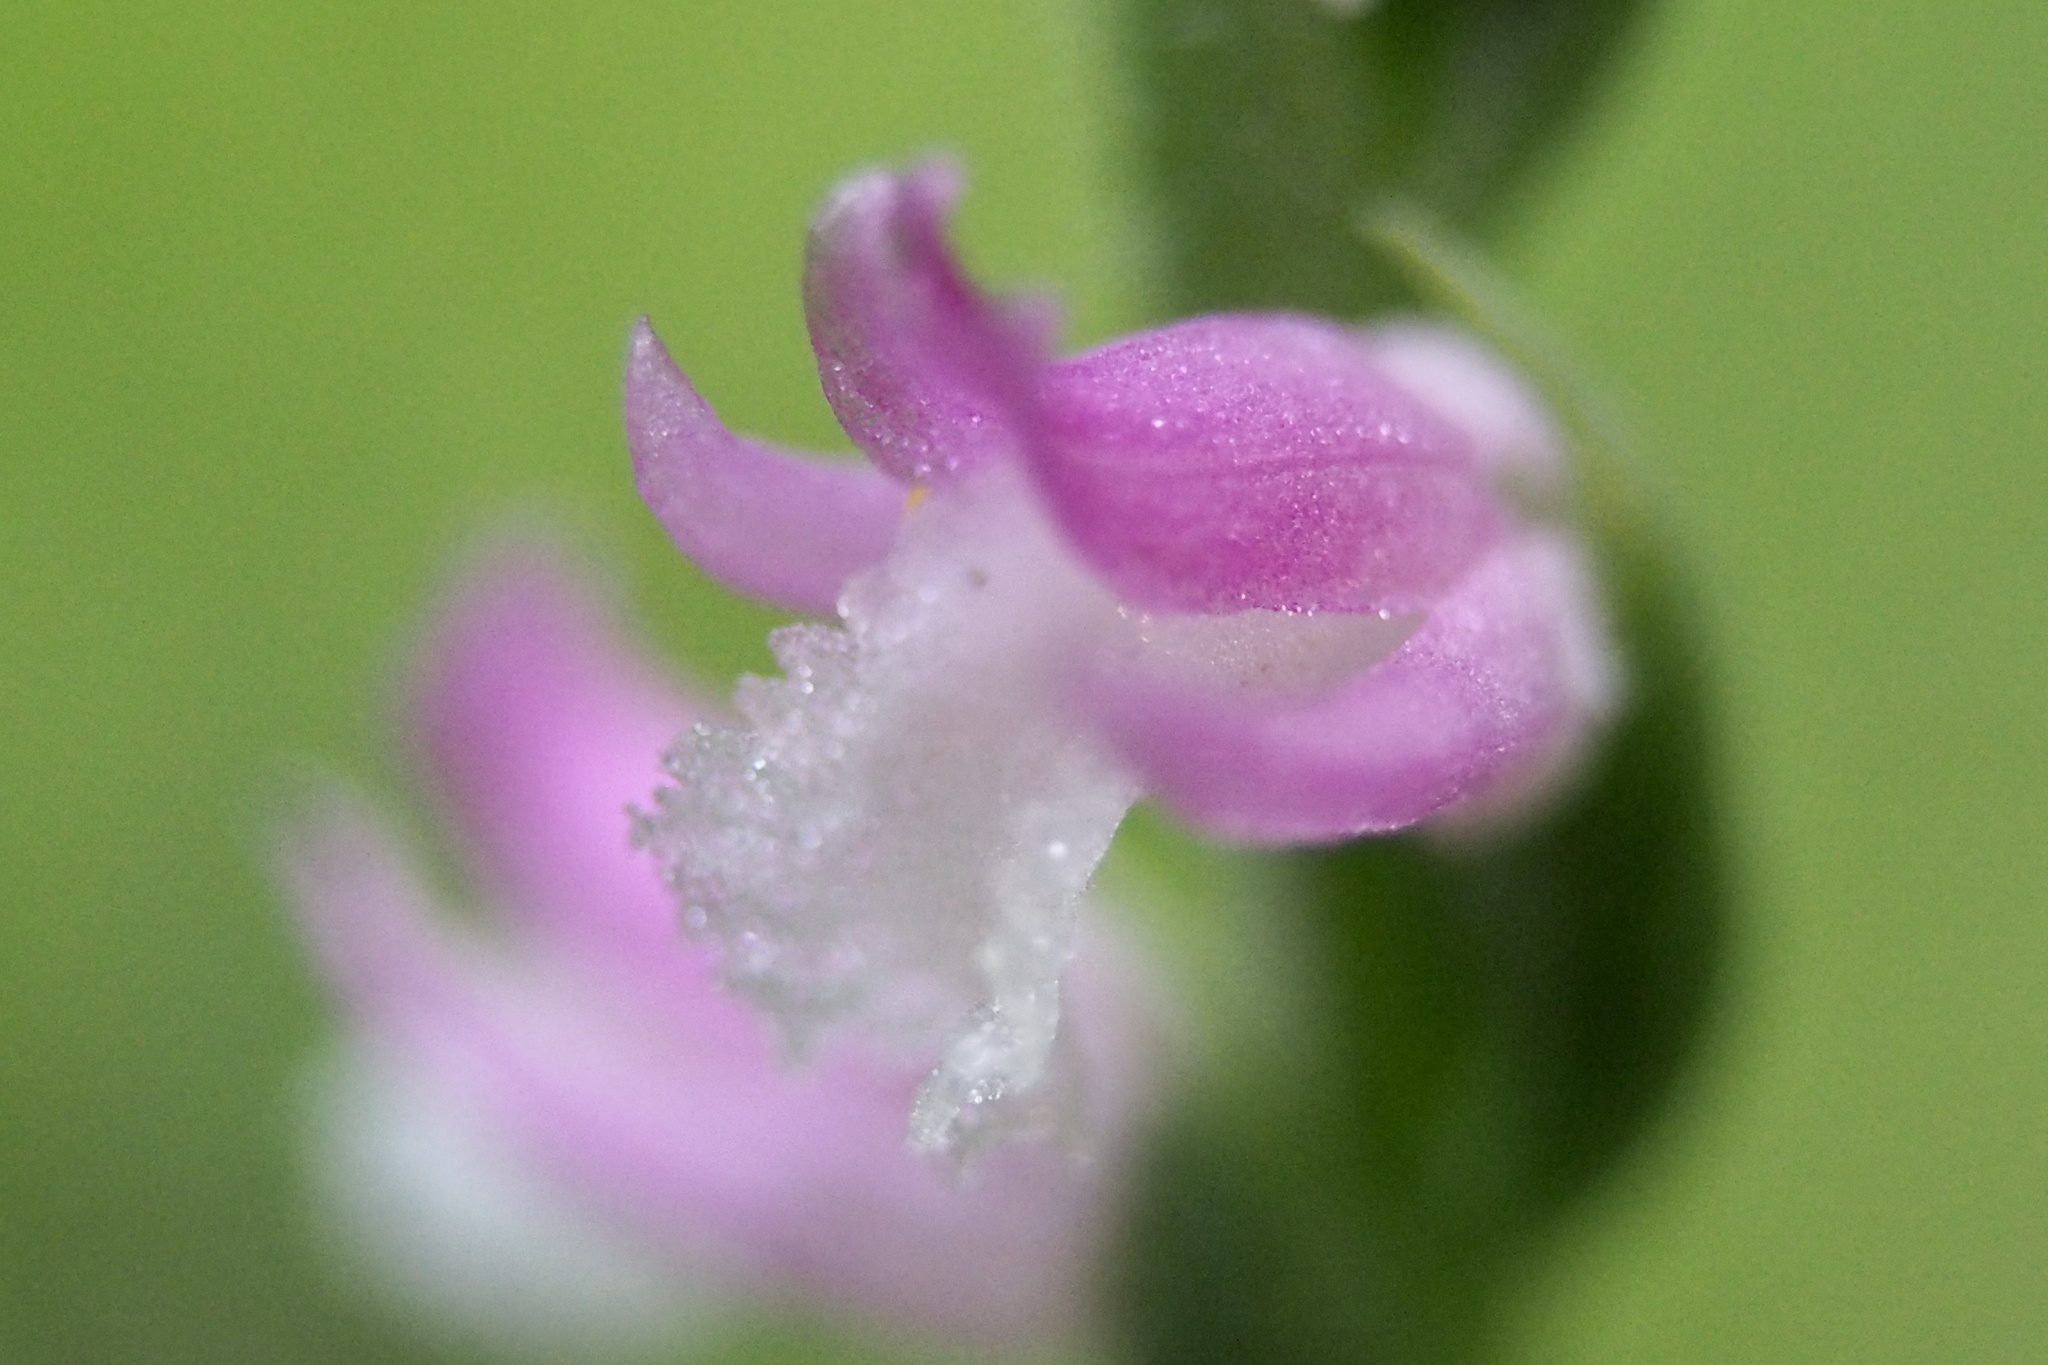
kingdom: Plantae
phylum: Tracheophyta
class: Liliopsida
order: Asparagales
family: Orchidaceae
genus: Spiranthes
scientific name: Spiranthes australis
